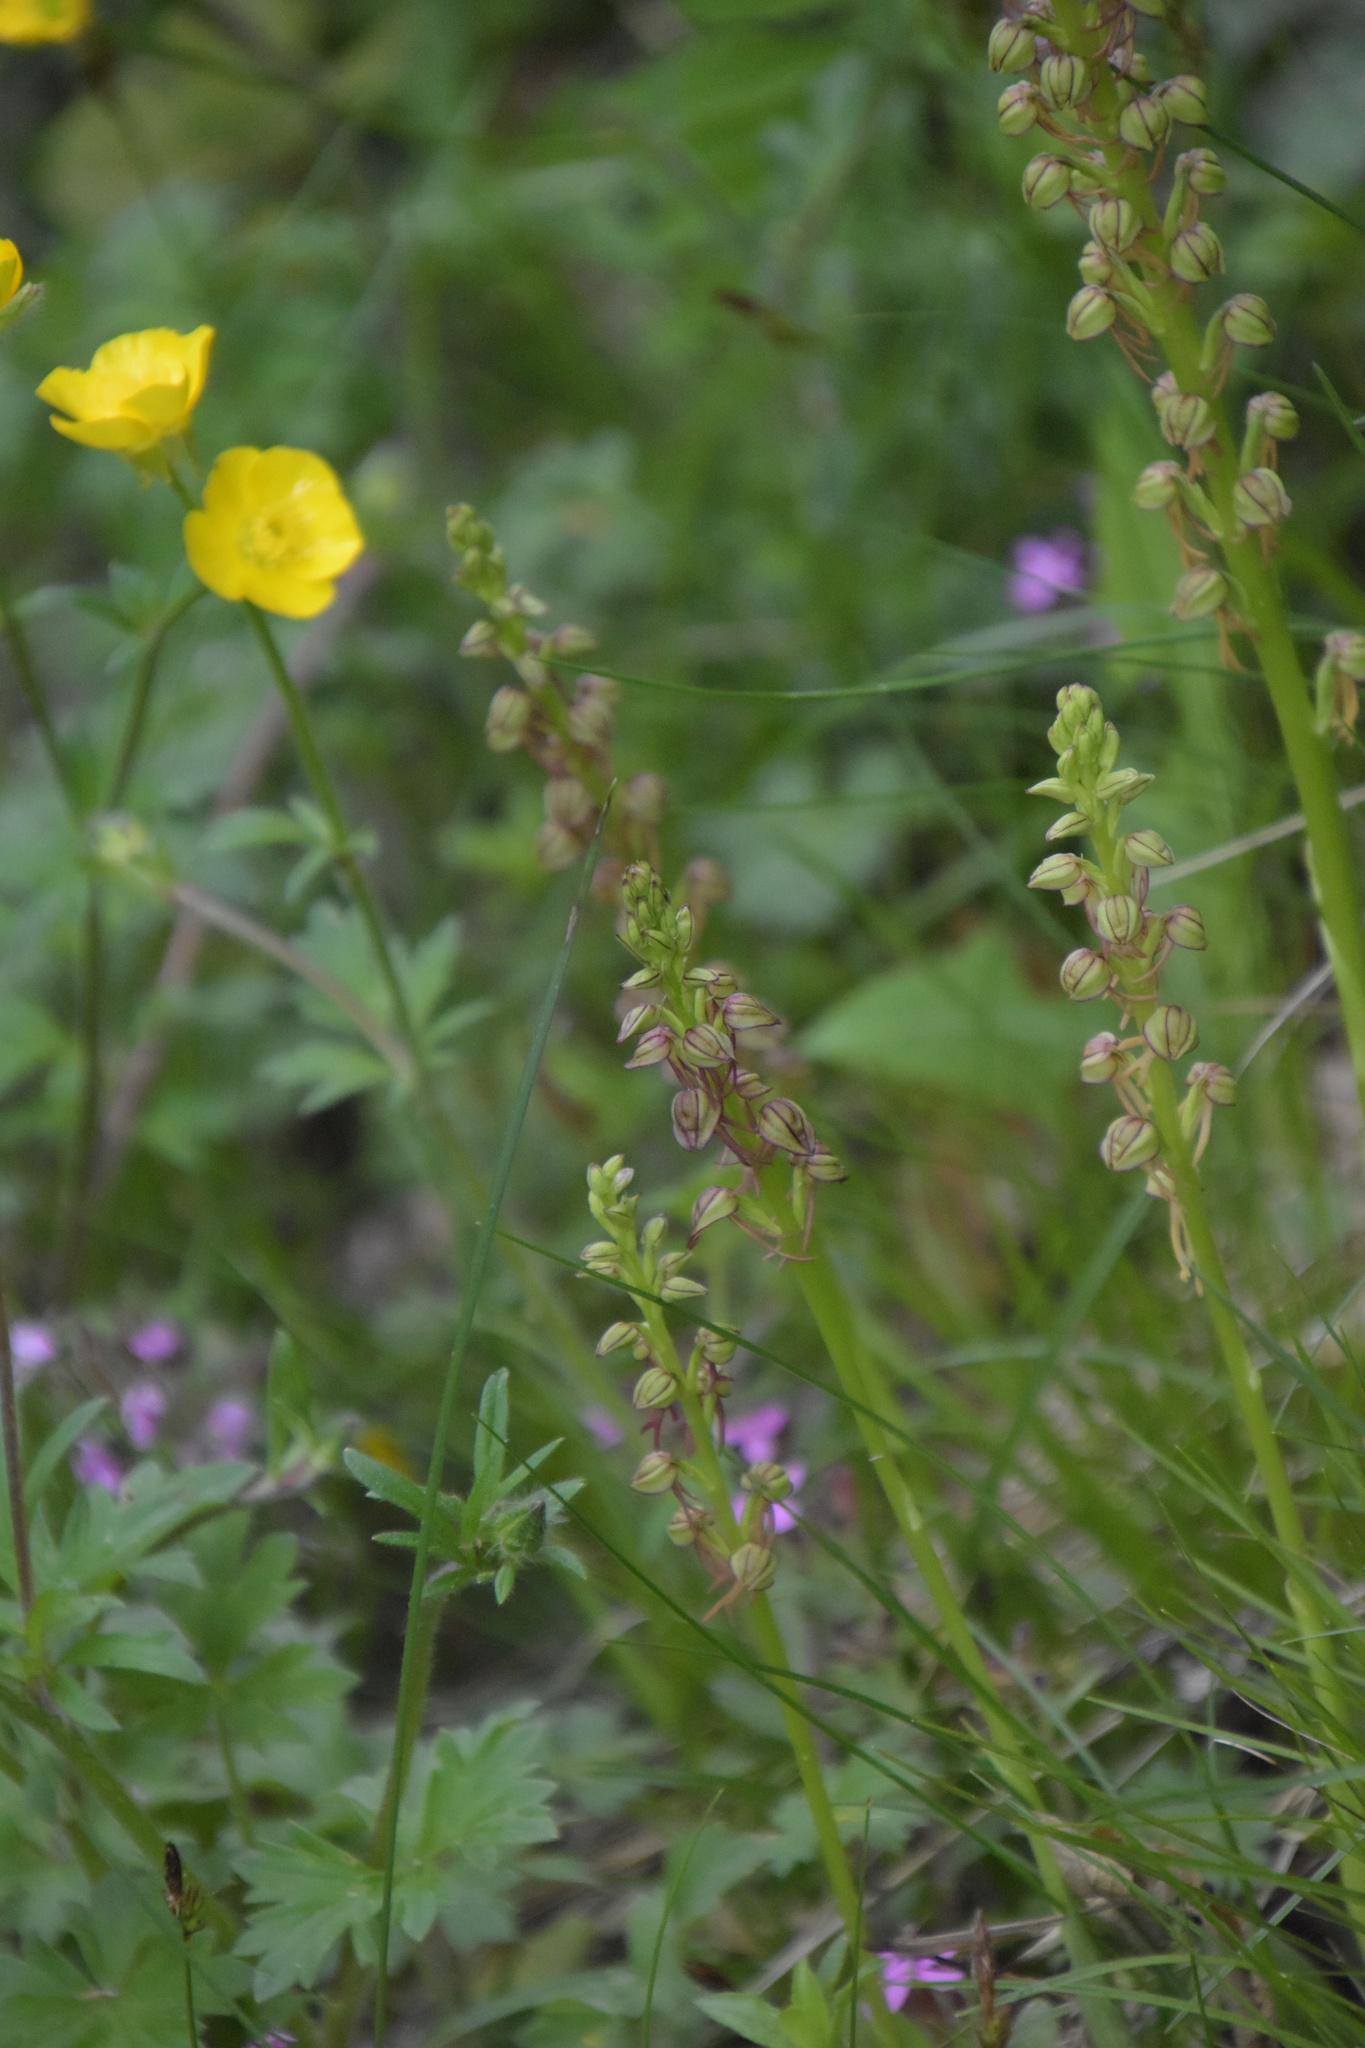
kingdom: Plantae
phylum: Tracheophyta
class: Liliopsida
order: Asparagales
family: Orchidaceae
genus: Orchis
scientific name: Orchis anthropophora
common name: Man orchid
